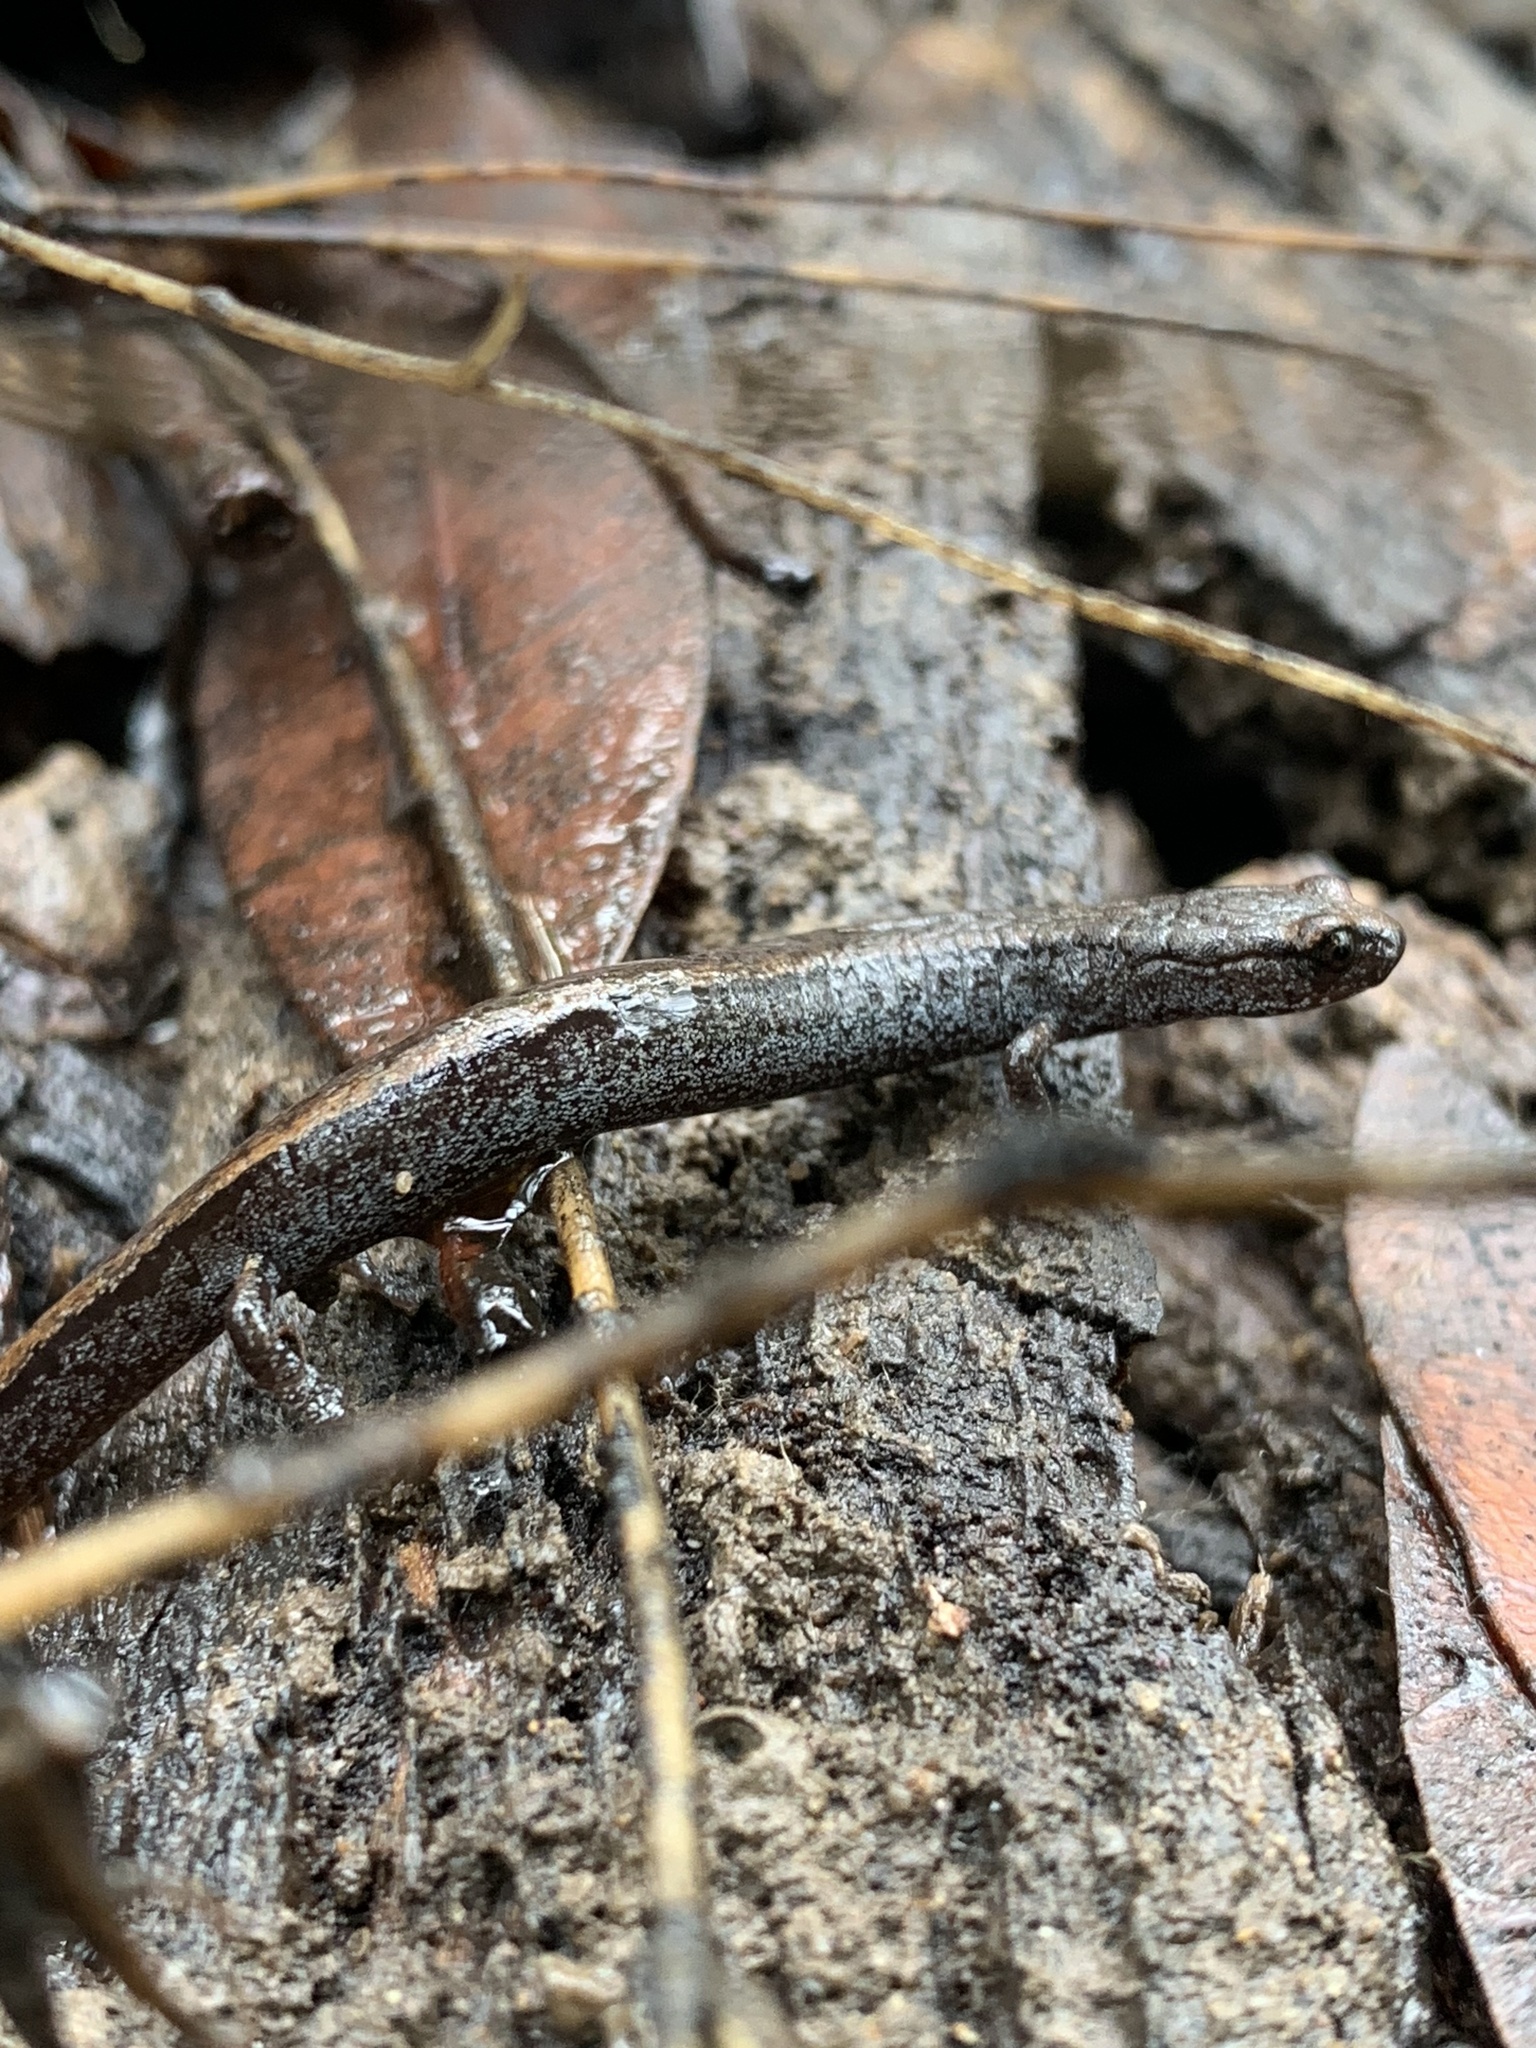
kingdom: Animalia
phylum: Chordata
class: Amphibia
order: Caudata
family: Plethodontidae
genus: Batrachoseps
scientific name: Batrachoseps attenuatus
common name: California slender salamander
